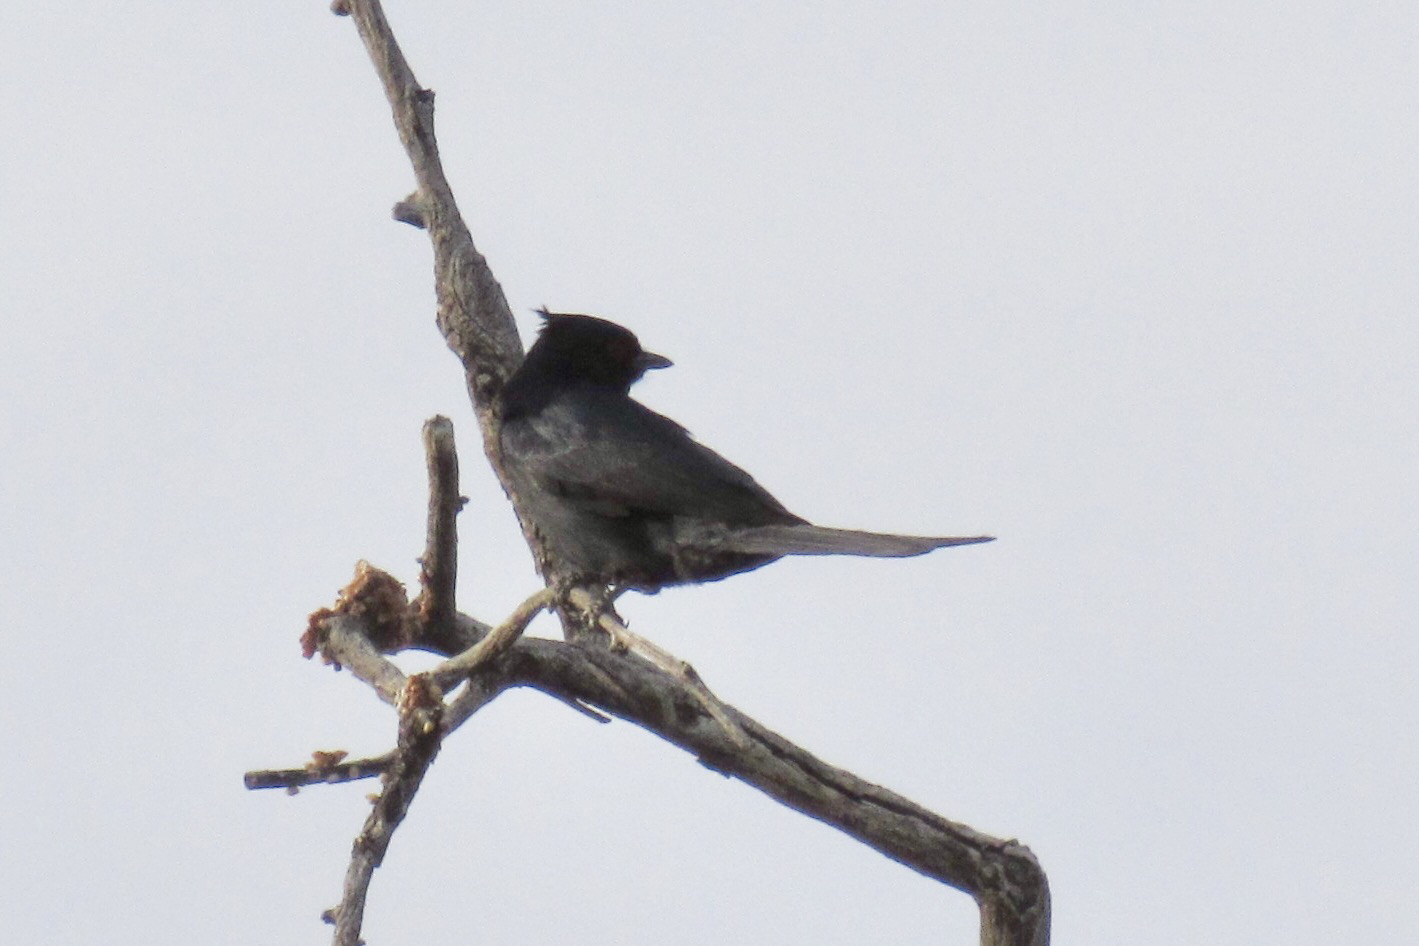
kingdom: Animalia
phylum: Chordata
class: Aves
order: Passeriformes
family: Ptilogonatidae
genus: Phainopepla
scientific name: Phainopepla nitens
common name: Phainopepla
